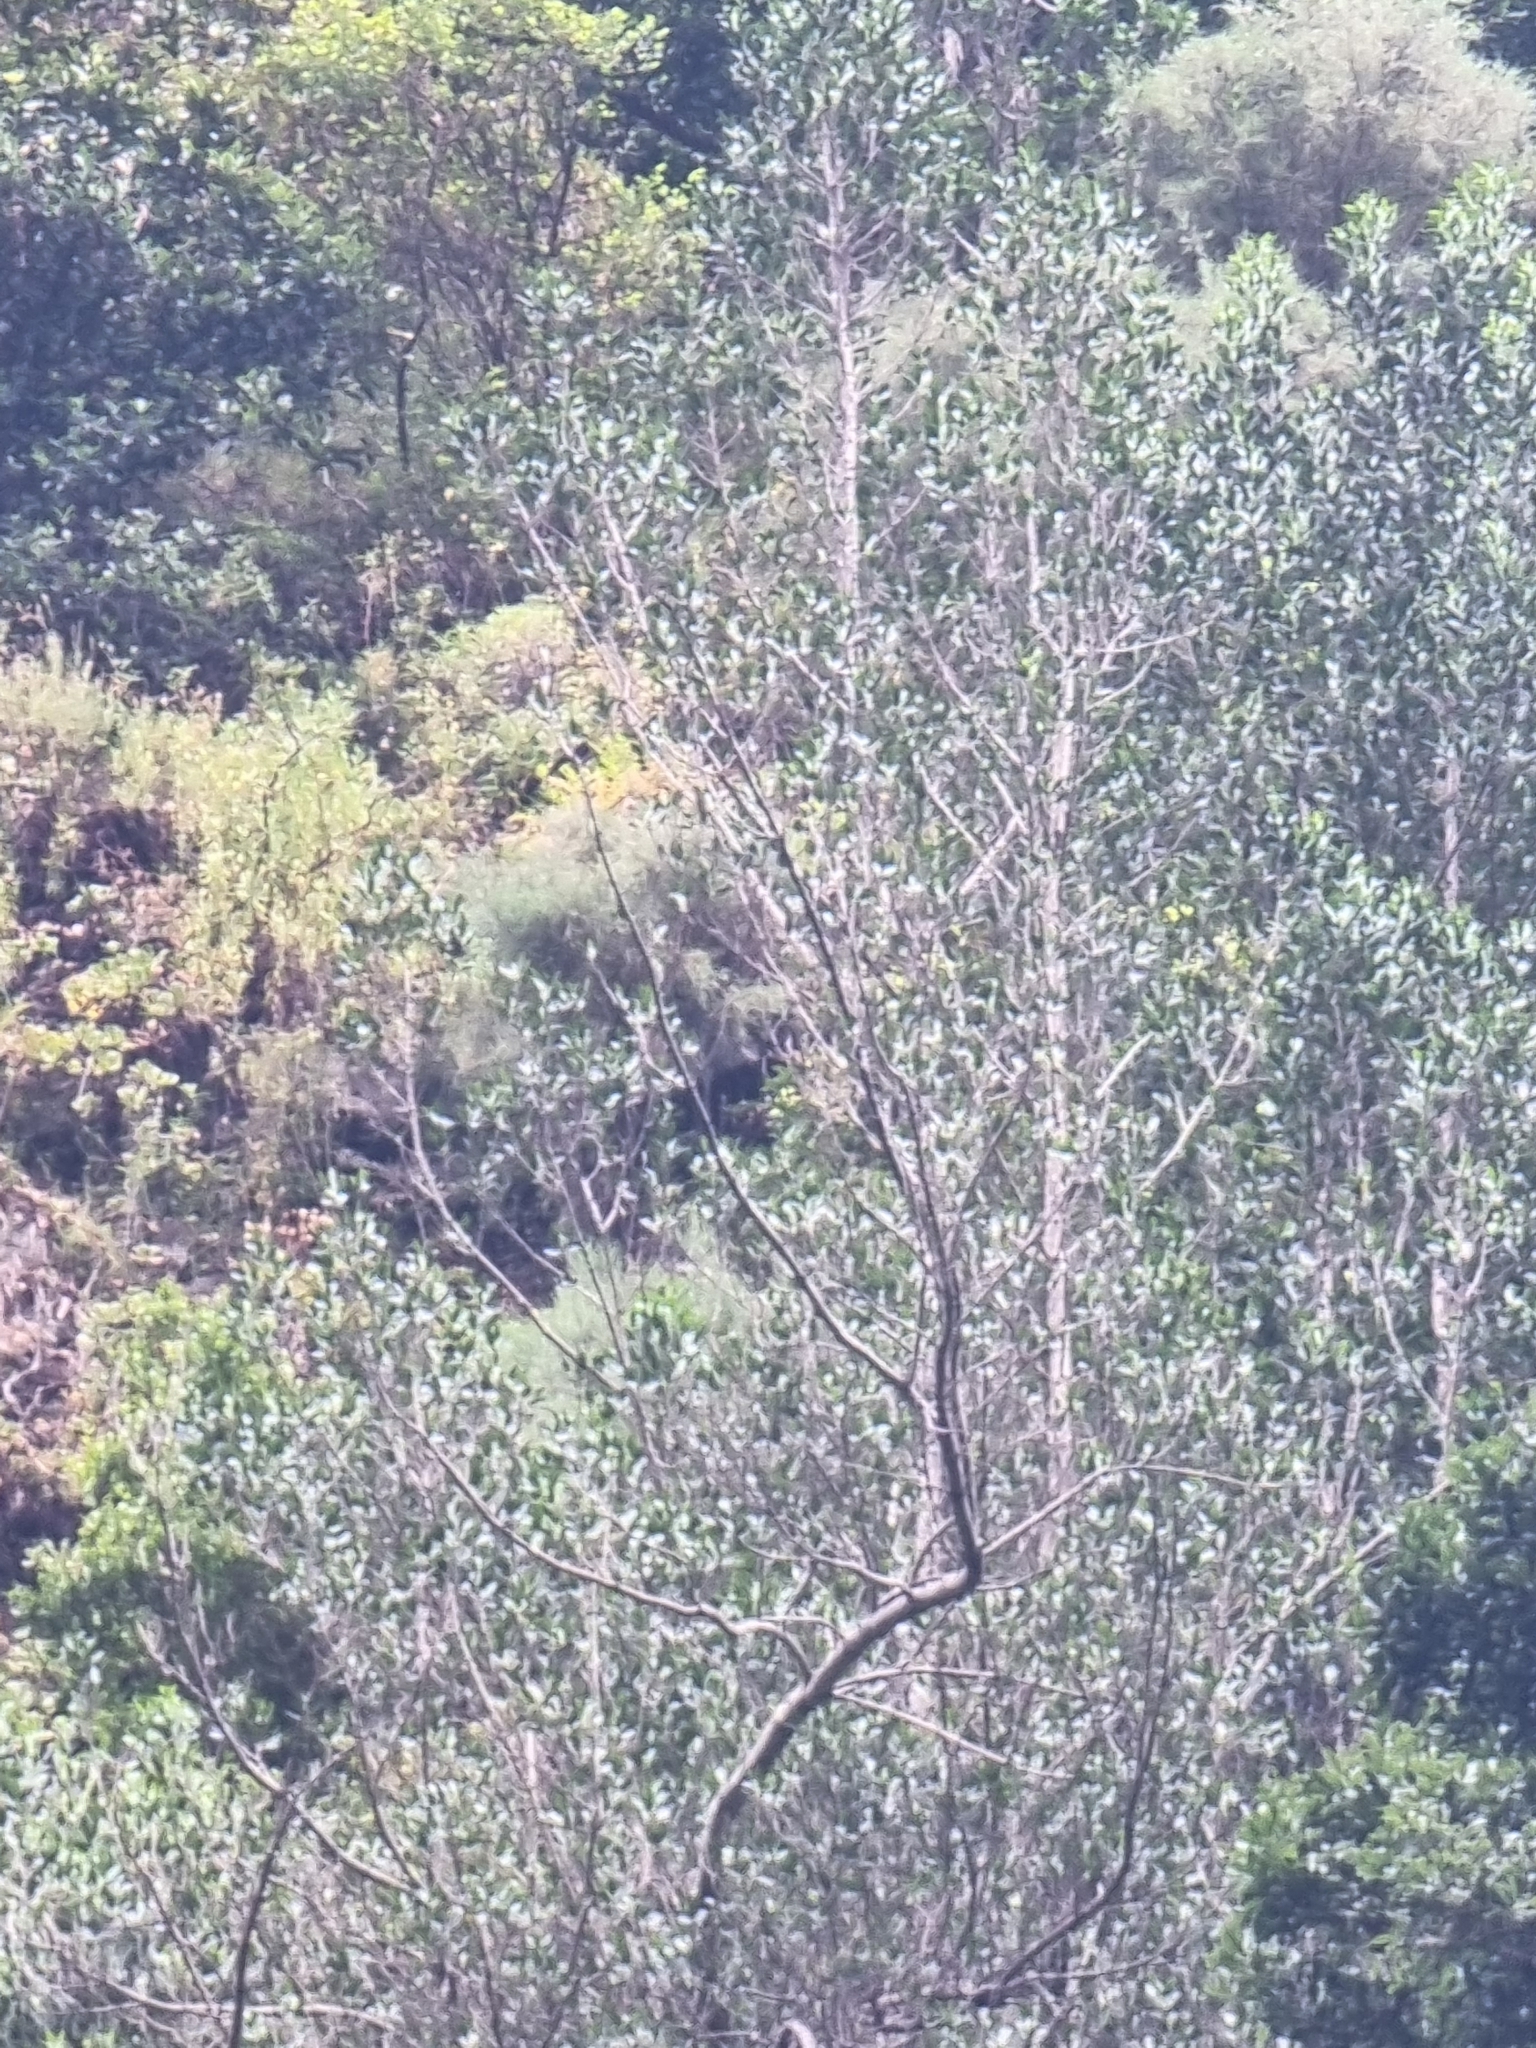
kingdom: Plantae
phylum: Tracheophyta
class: Magnoliopsida
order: Aquifoliales
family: Aquifoliaceae
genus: Ilex
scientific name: Ilex canariensis
